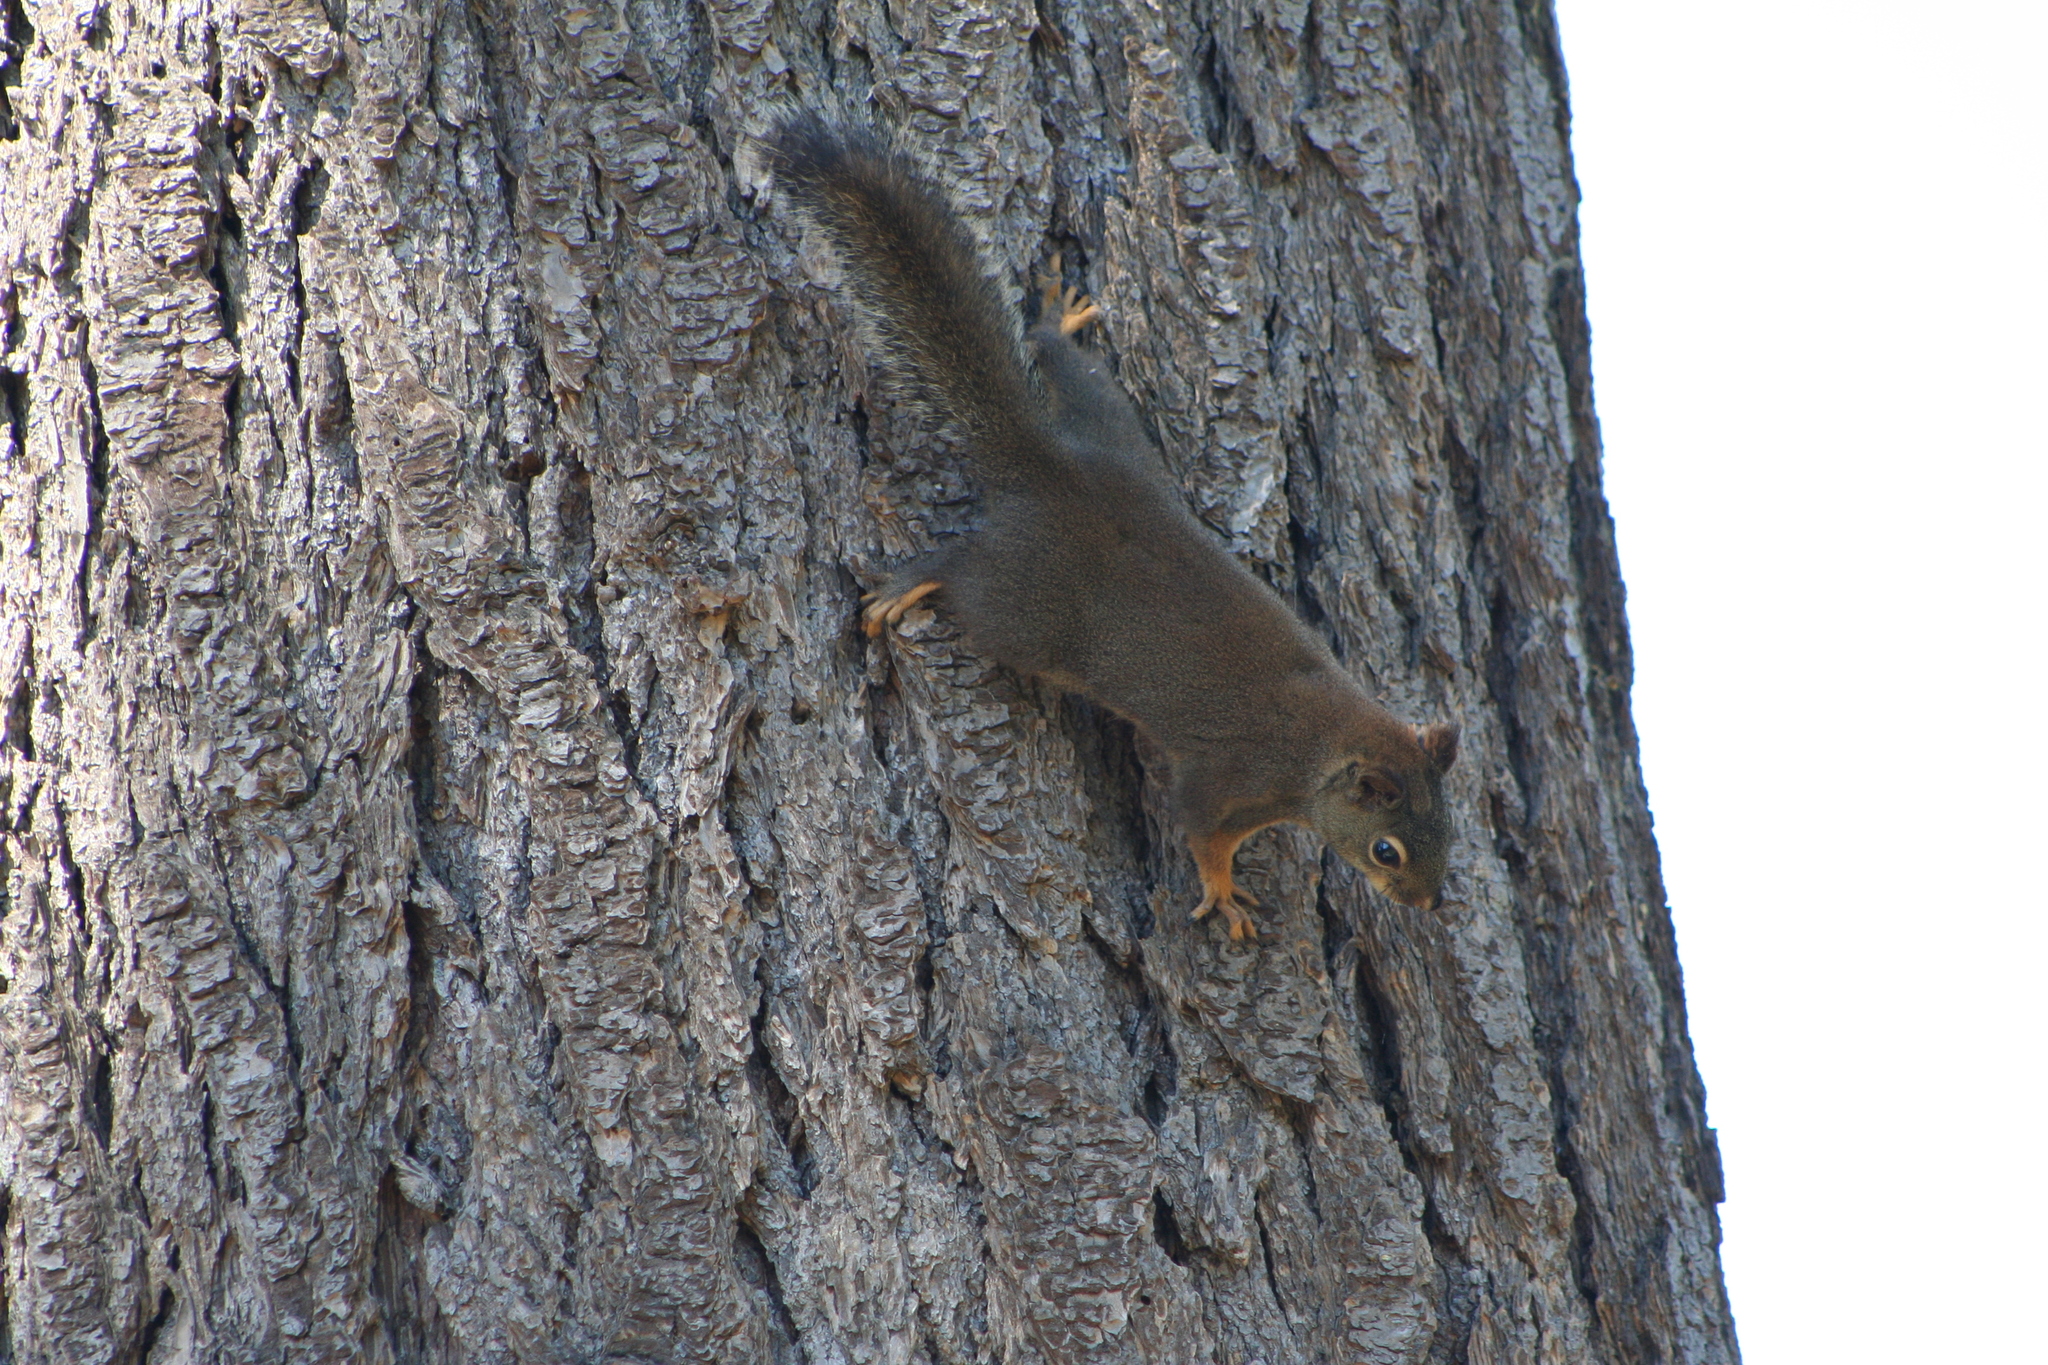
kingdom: Animalia
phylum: Chordata
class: Mammalia
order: Rodentia
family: Sciuridae
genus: Tamiasciurus
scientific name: Tamiasciurus douglasii
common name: Douglas's squirrel
